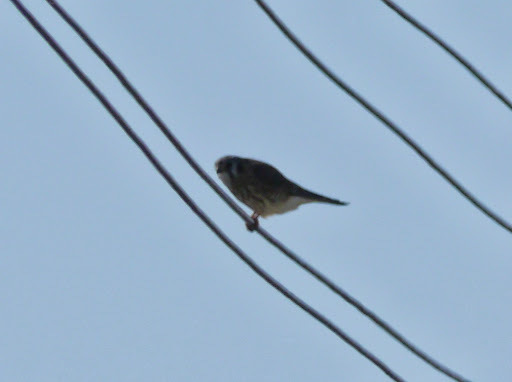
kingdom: Animalia
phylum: Chordata
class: Aves
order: Falconiformes
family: Falconidae
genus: Falco
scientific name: Falco sparverius
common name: American kestrel
